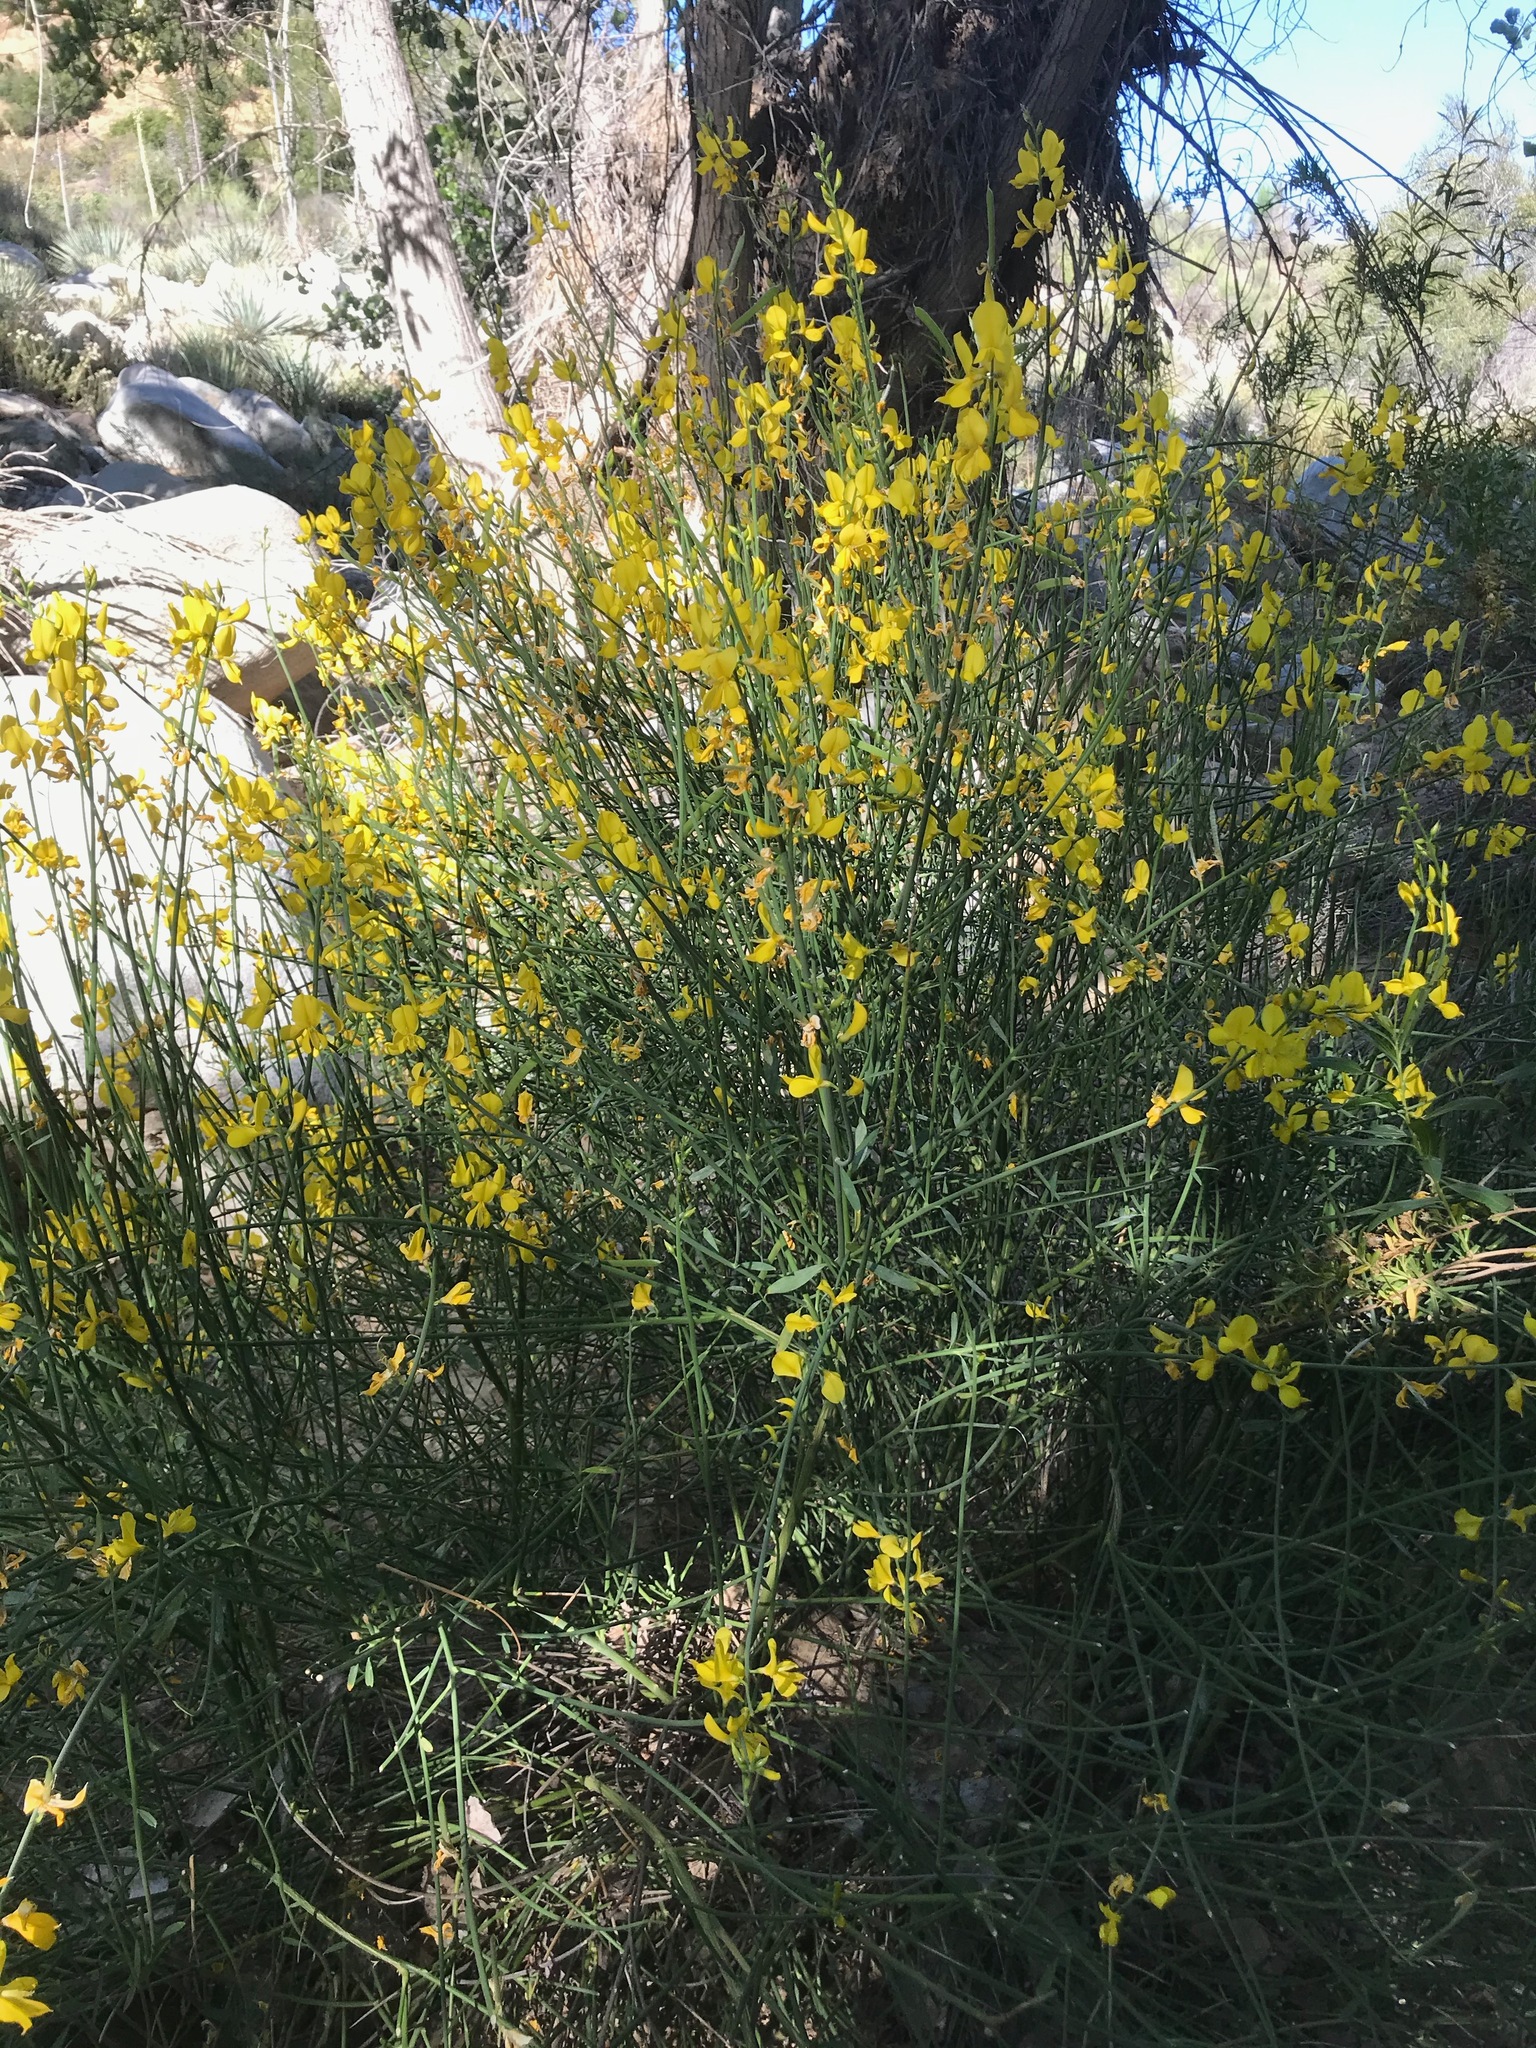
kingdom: Plantae
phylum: Tracheophyta
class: Magnoliopsida
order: Fabales
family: Fabaceae
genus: Spartium
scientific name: Spartium junceum
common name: Spanish broom
